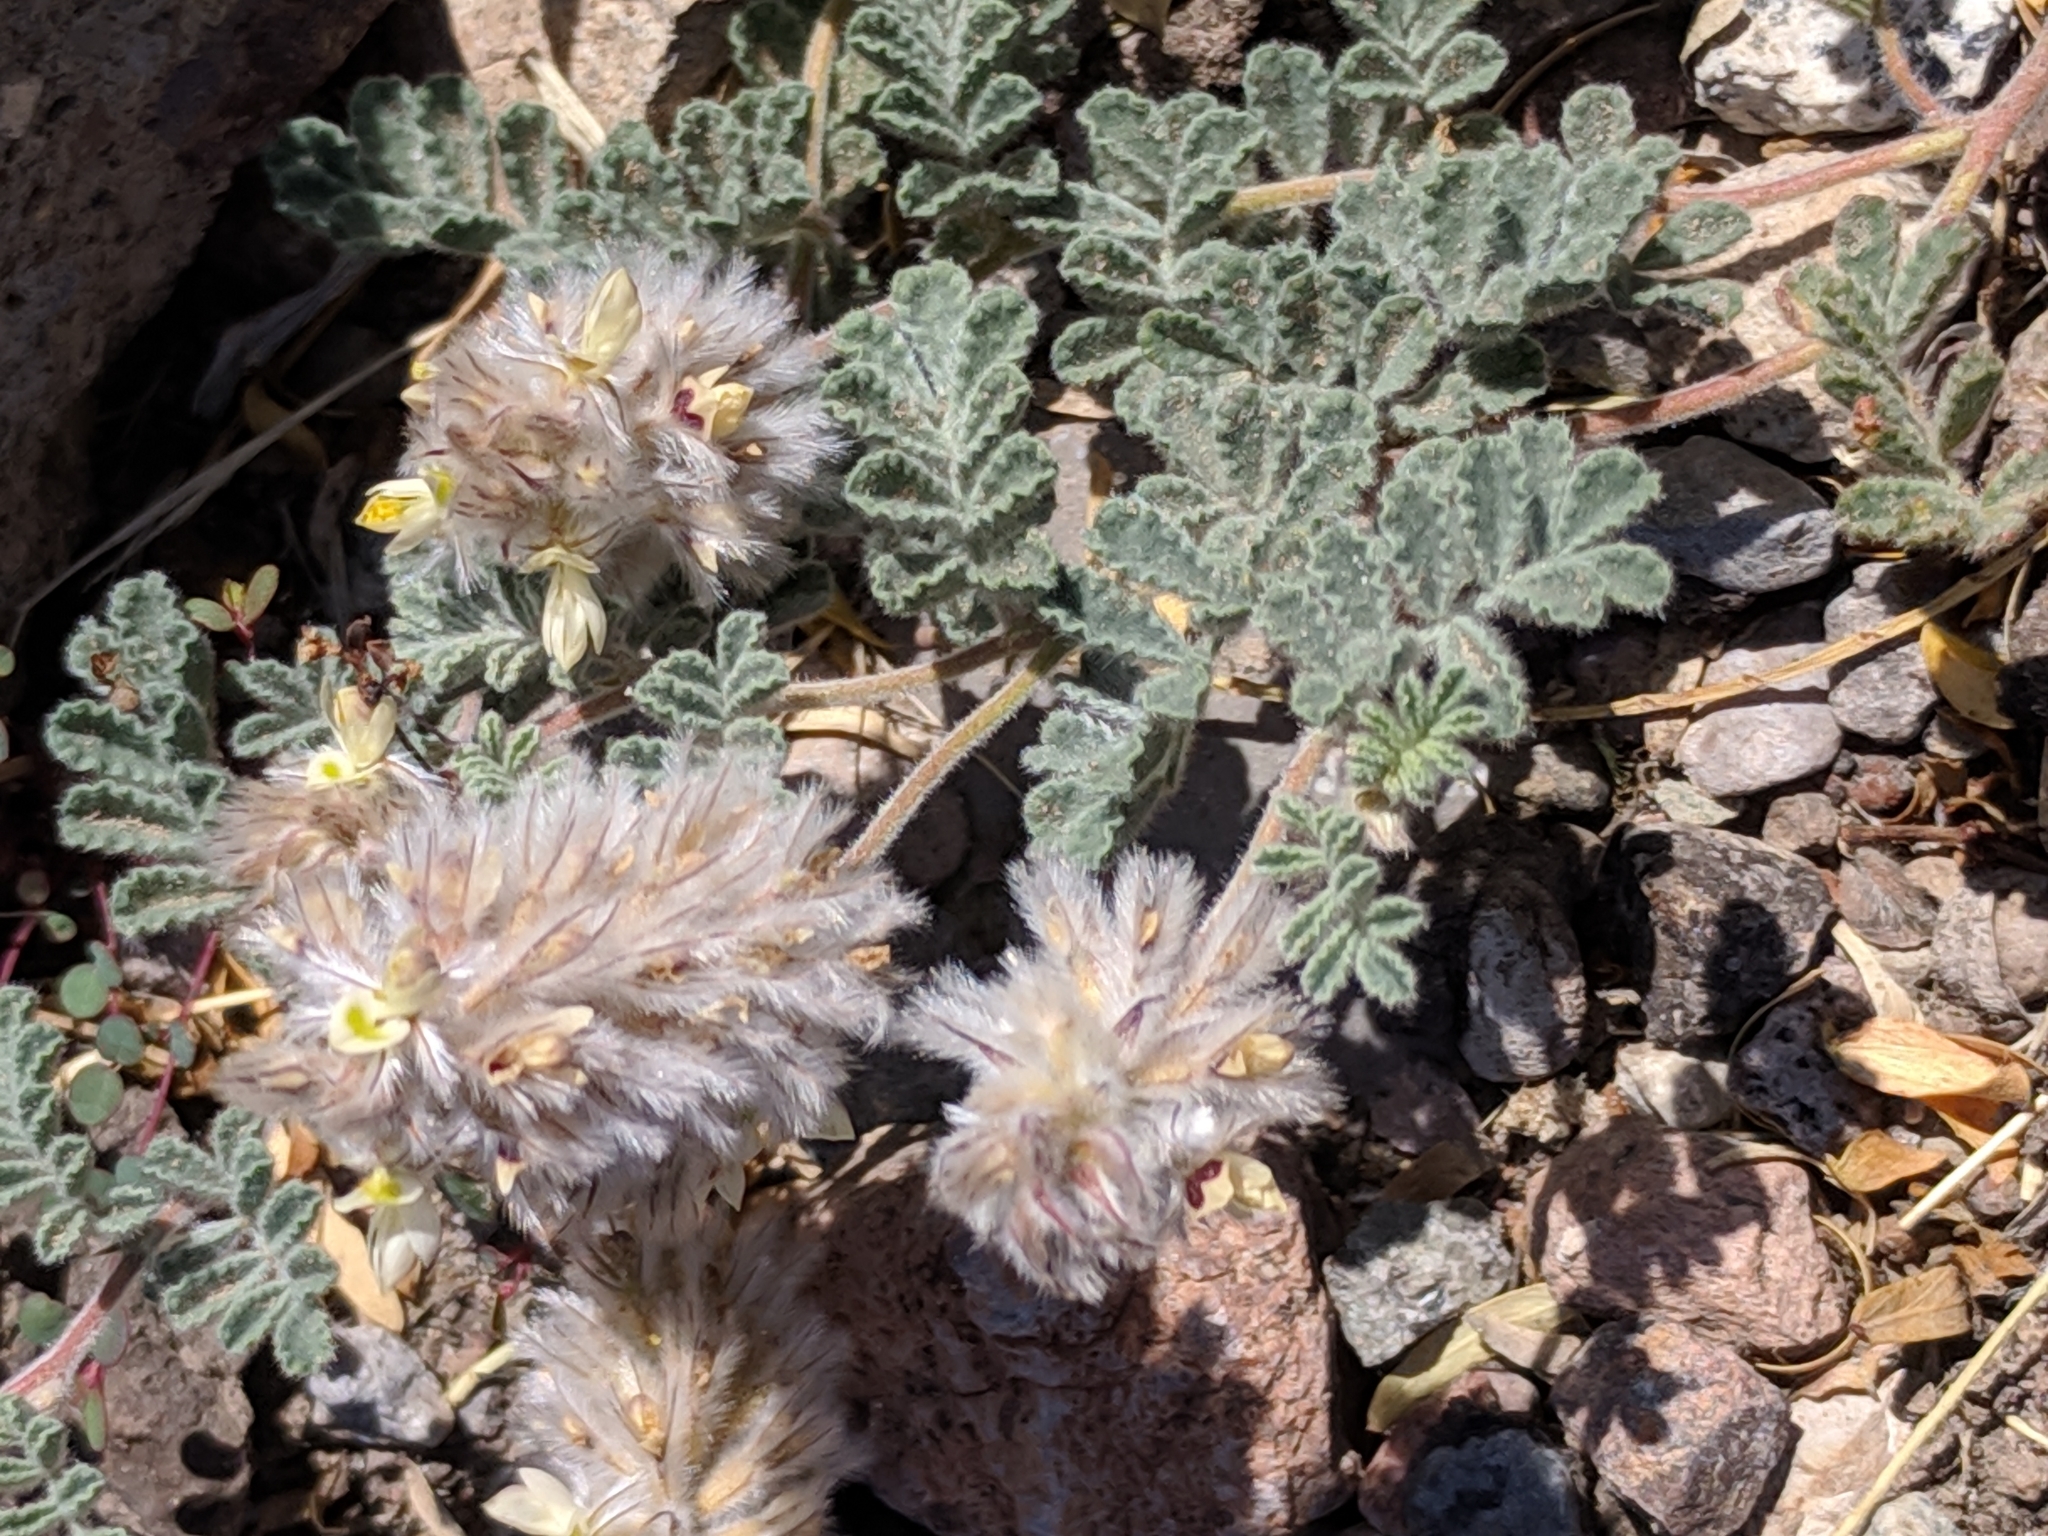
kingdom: Plantae
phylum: Tracheophyta
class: Magnoliopsida
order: Fabales
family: Fabaceae
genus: Dalea
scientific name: Dalea neomexicana
